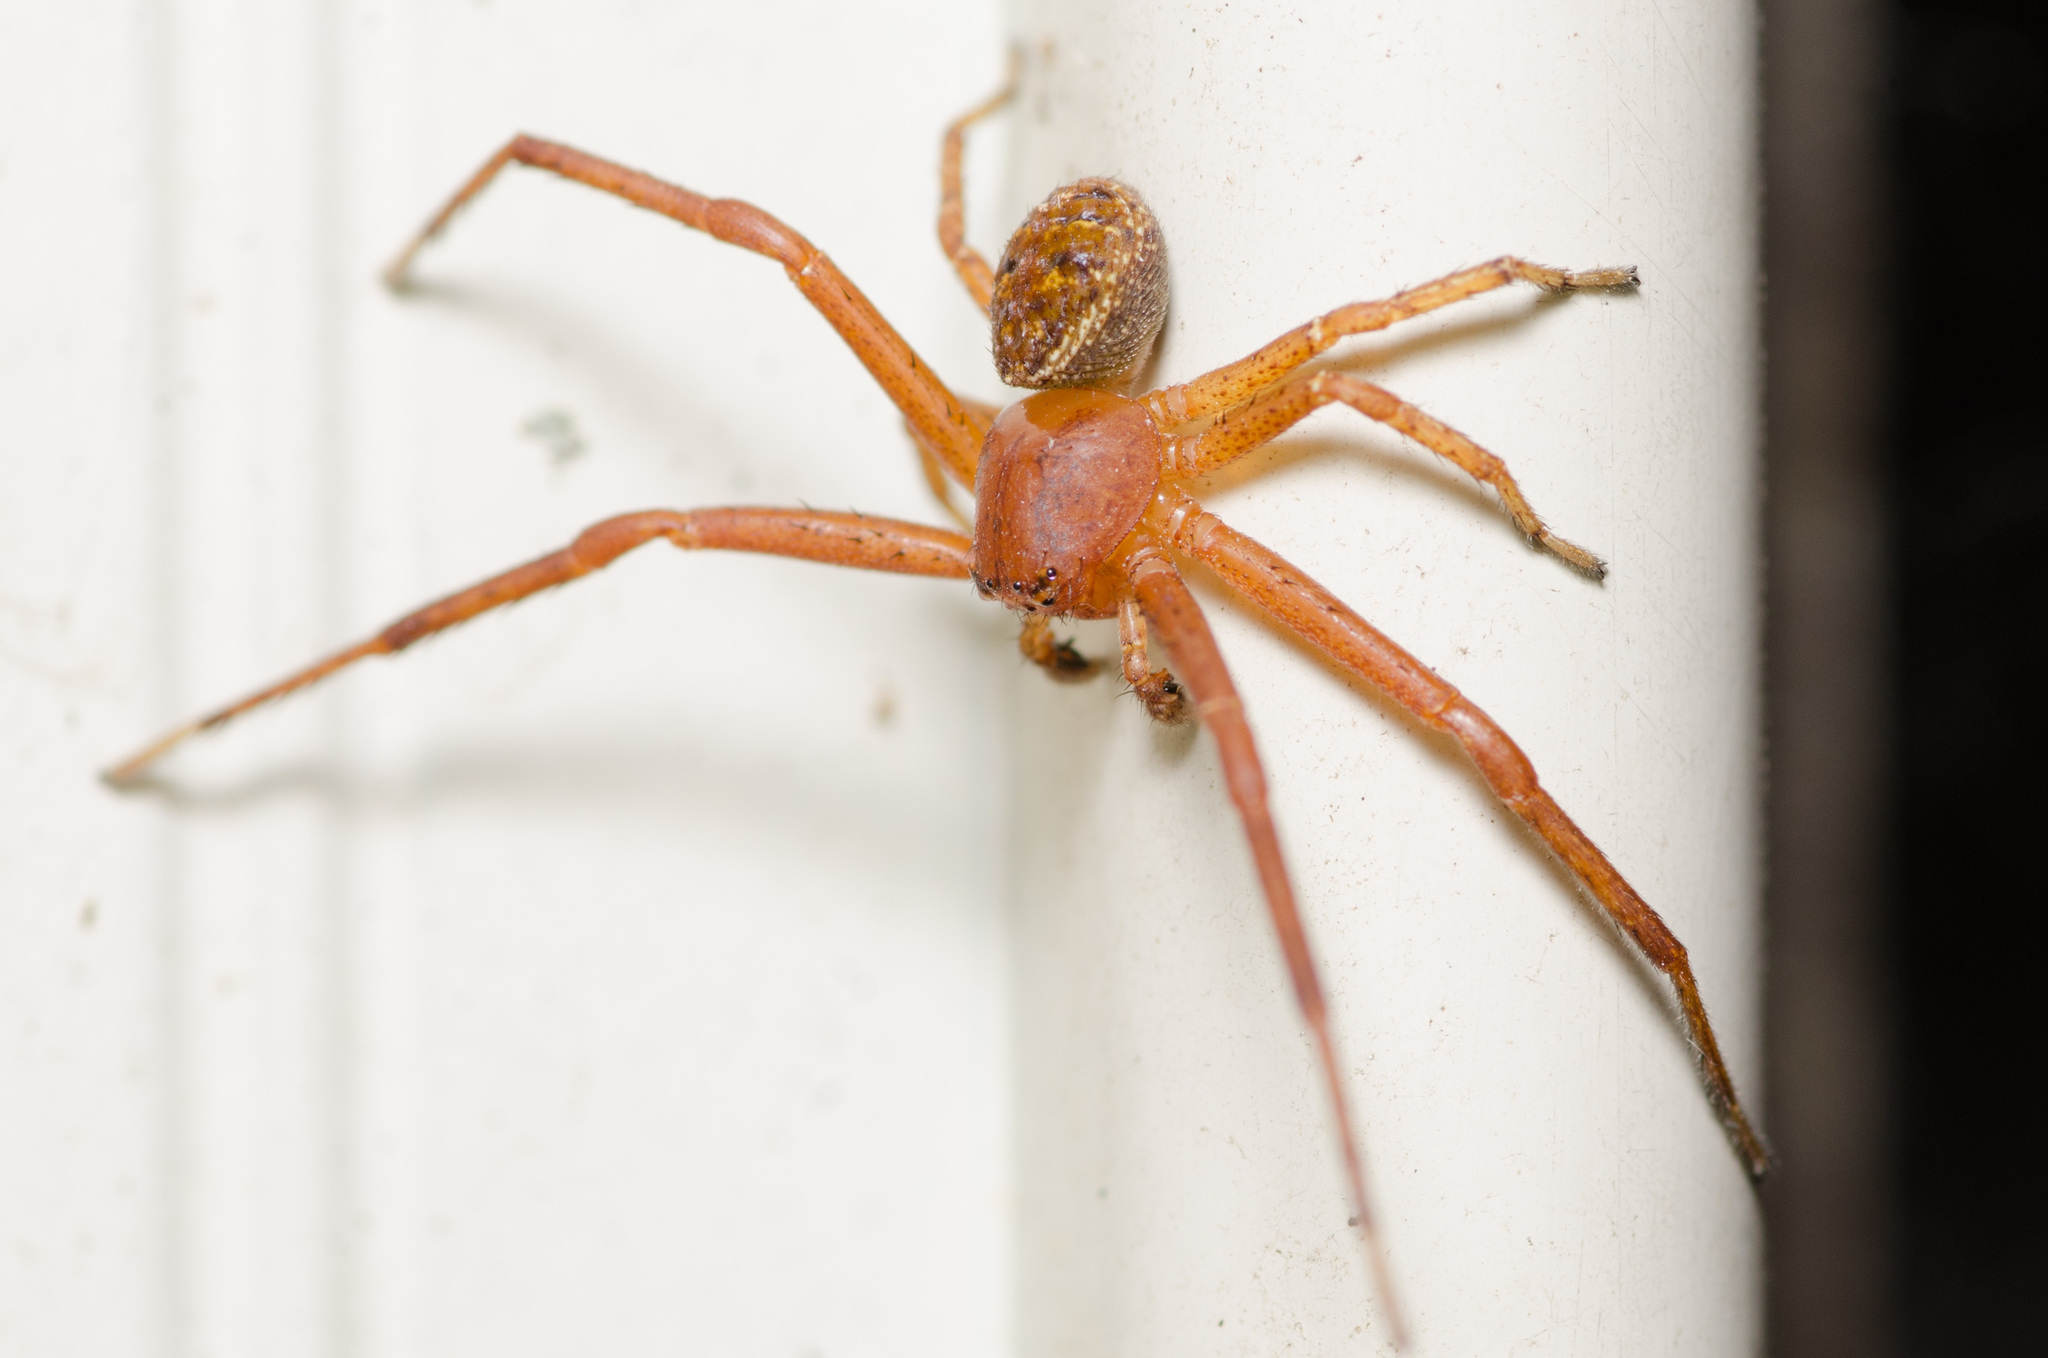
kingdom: Animalia
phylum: Arthropoda
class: Arachnida
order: Araneae
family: Thomisidae
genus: Xysticus
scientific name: Xysticus funestus
